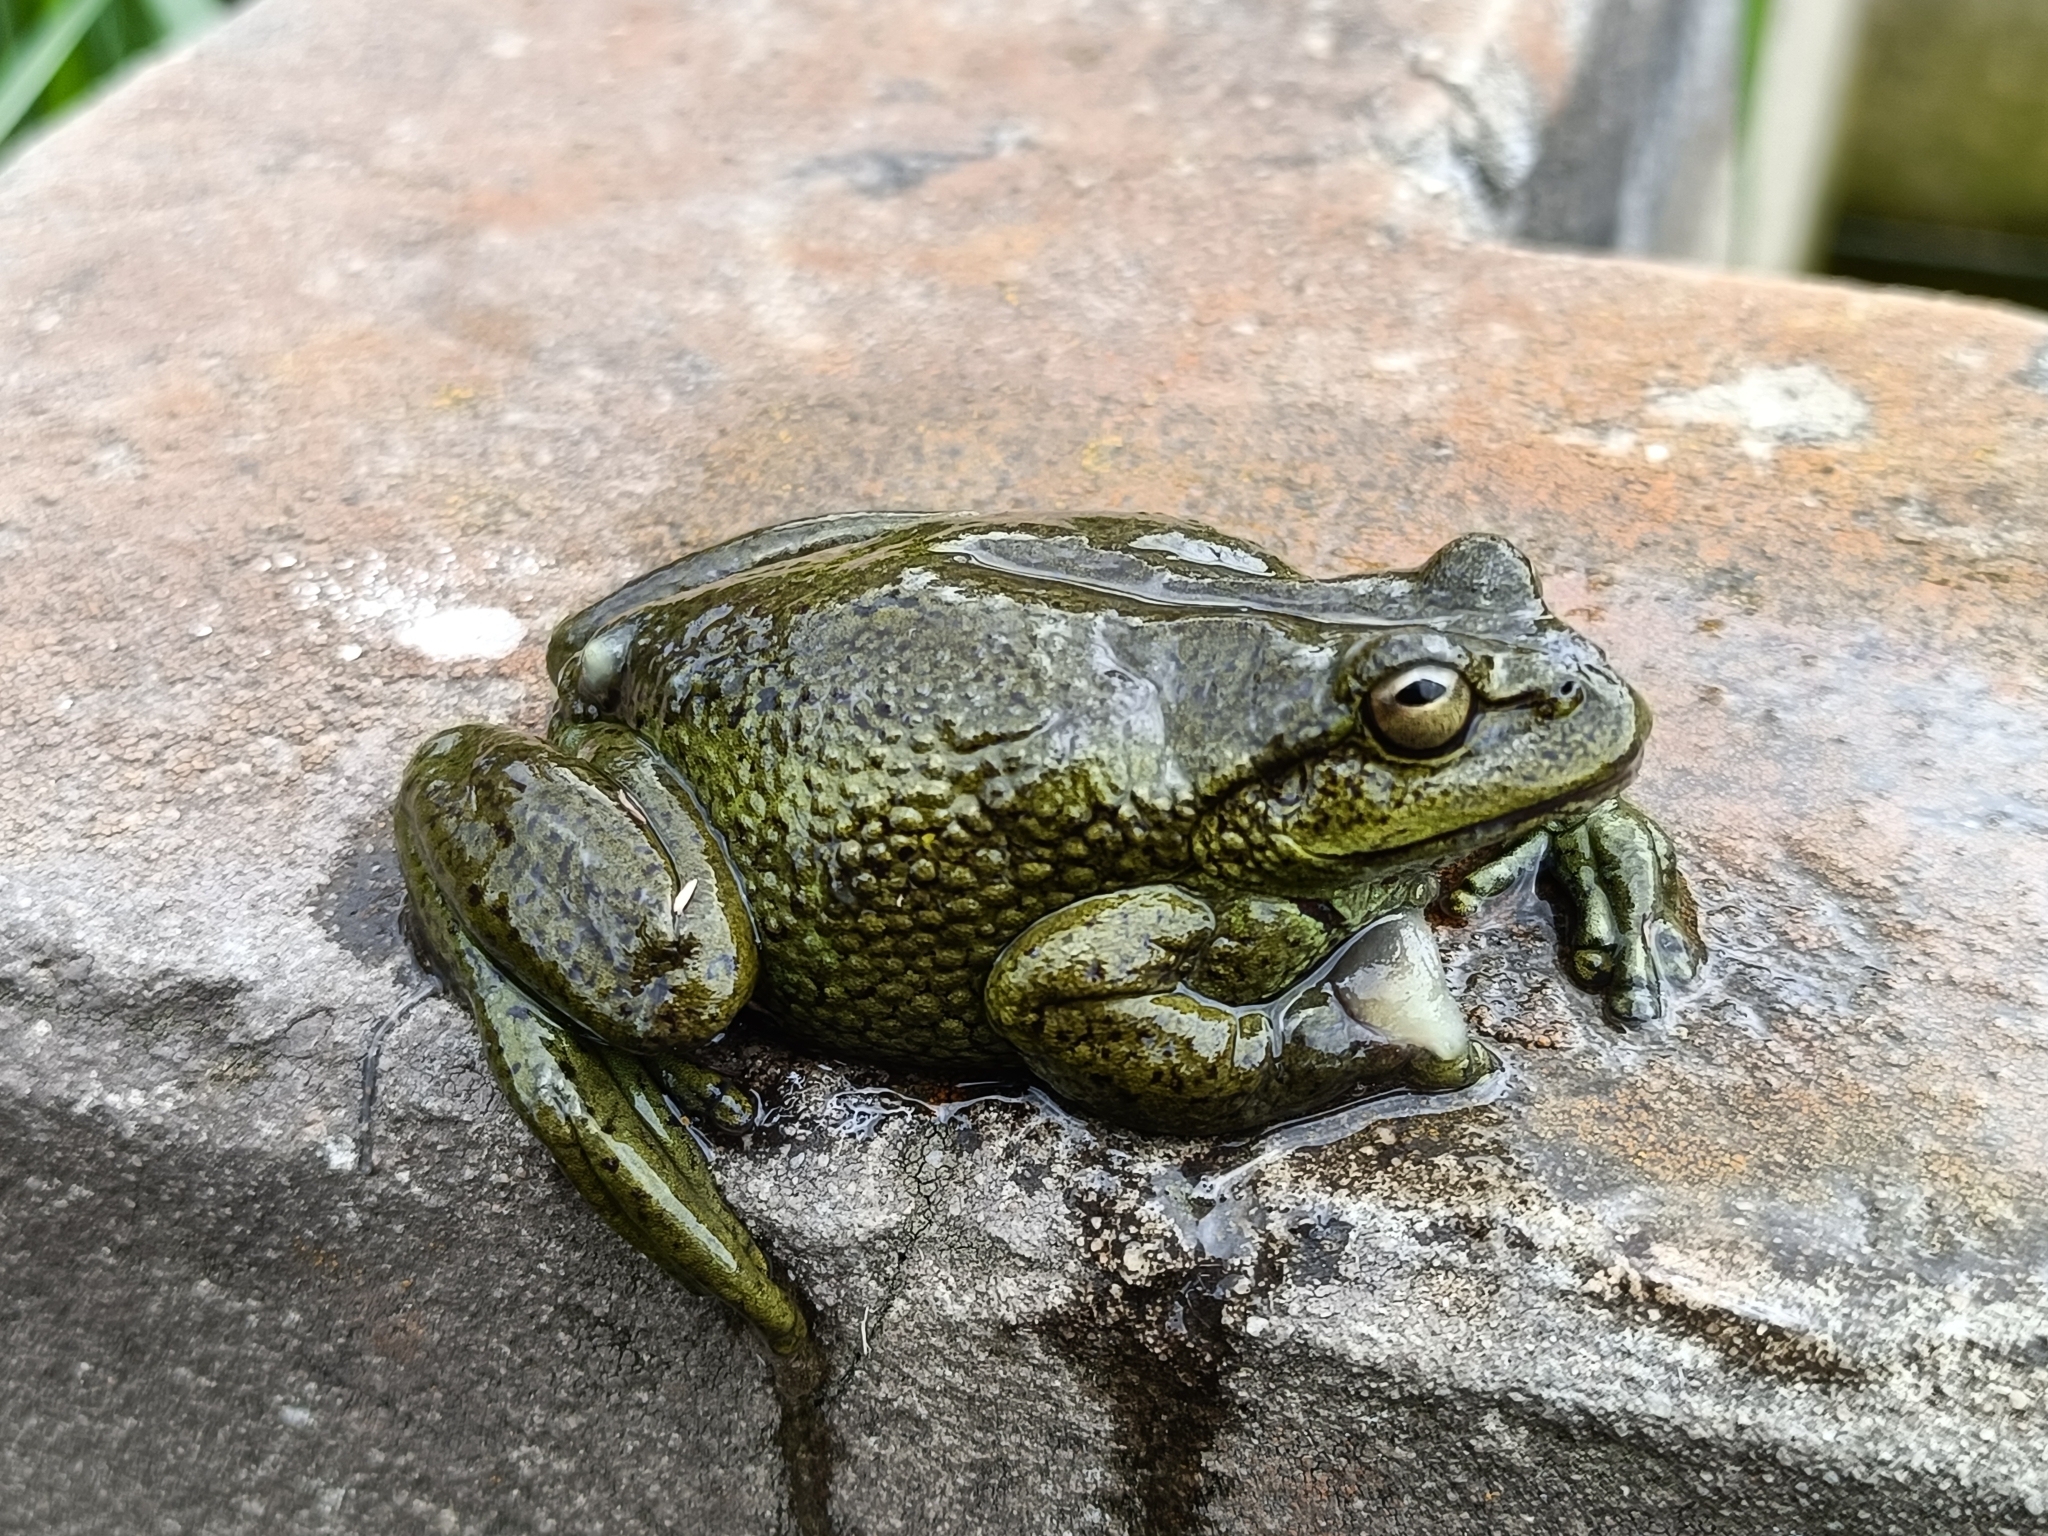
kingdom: Animalia
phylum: Chordata
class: Amphibia
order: Anura
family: Hylidae
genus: Dendropsophus
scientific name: Dendropsophus molitor
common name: Green dotted treefrog
